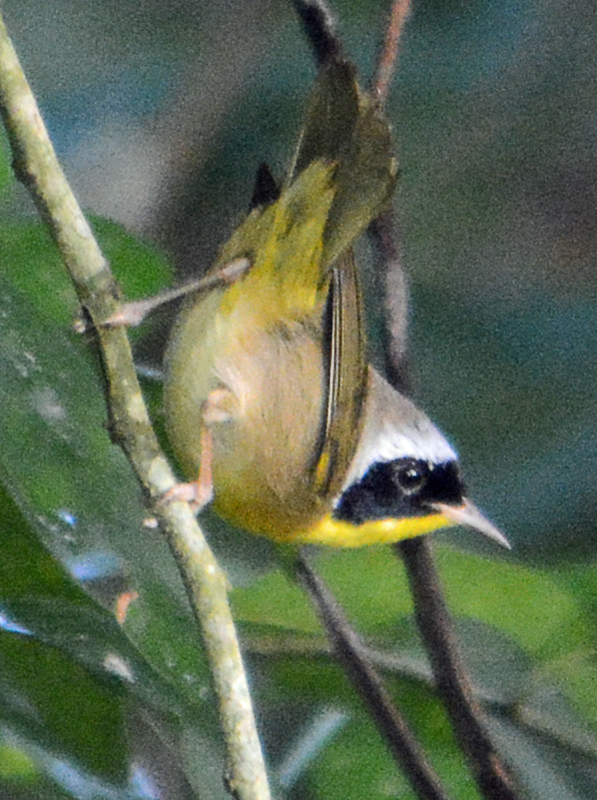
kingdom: Animalia
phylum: Chordata
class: Aves
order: Passeriformes
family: Parulidae
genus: Geothlypis
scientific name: Geothlypis trichas
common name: Common yellowthroat
